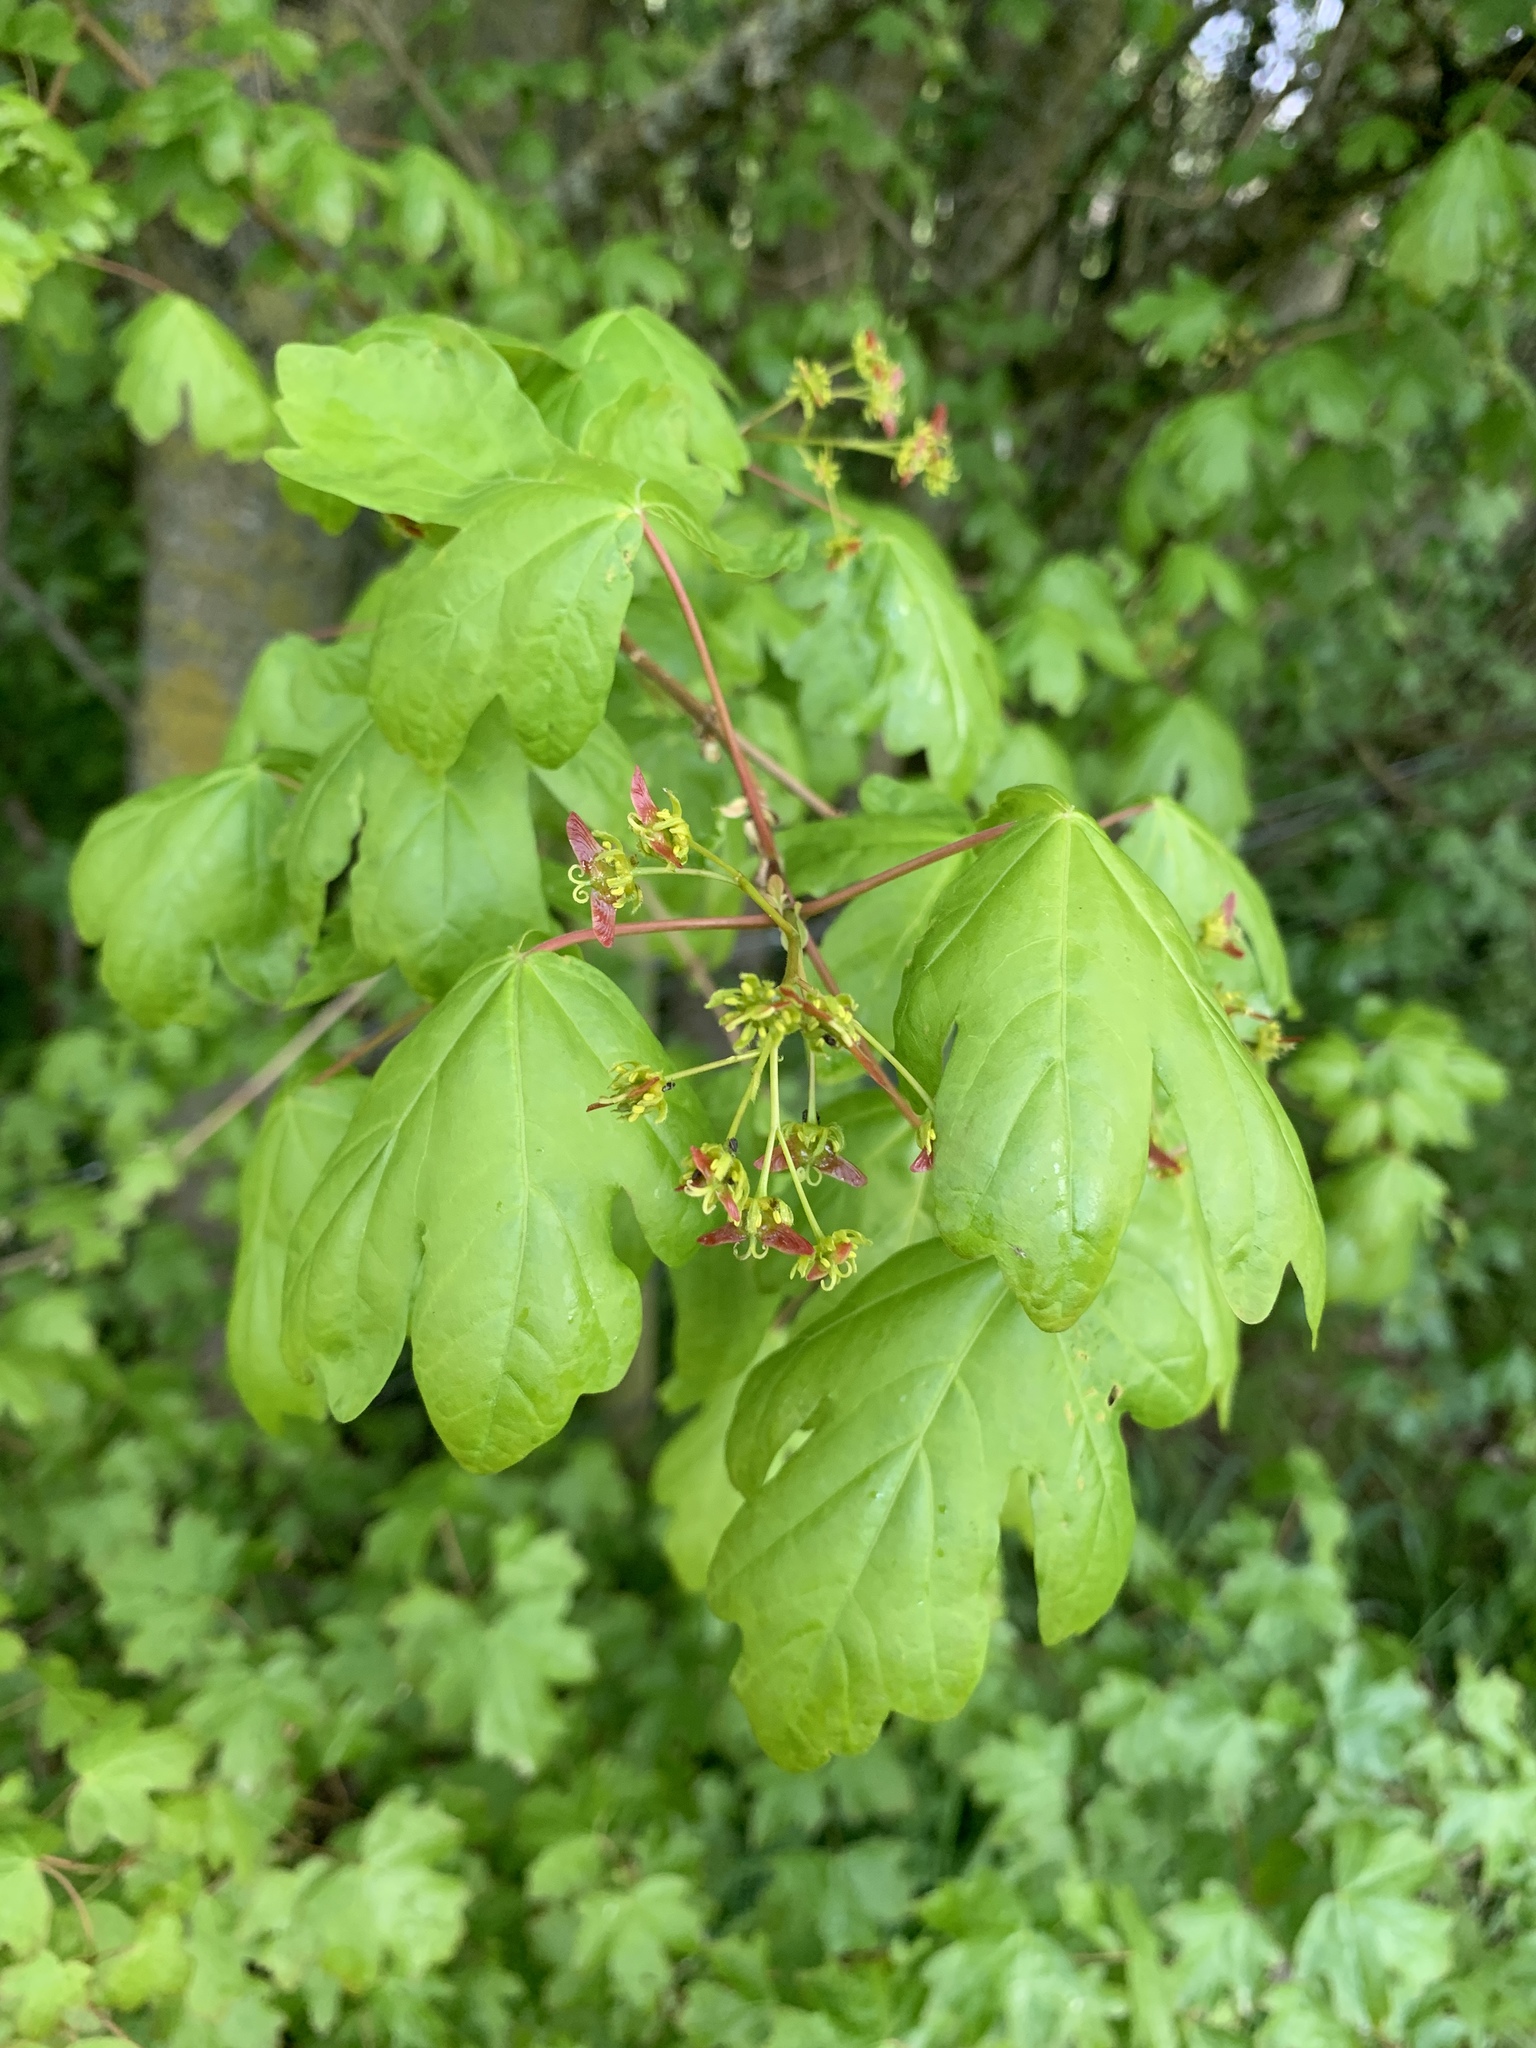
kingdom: Plantae
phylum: Tracheophyta
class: Magnoliopsida
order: Sapindales
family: Sapindaceae
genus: Acer
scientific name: Acer campestre
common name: Field maple
